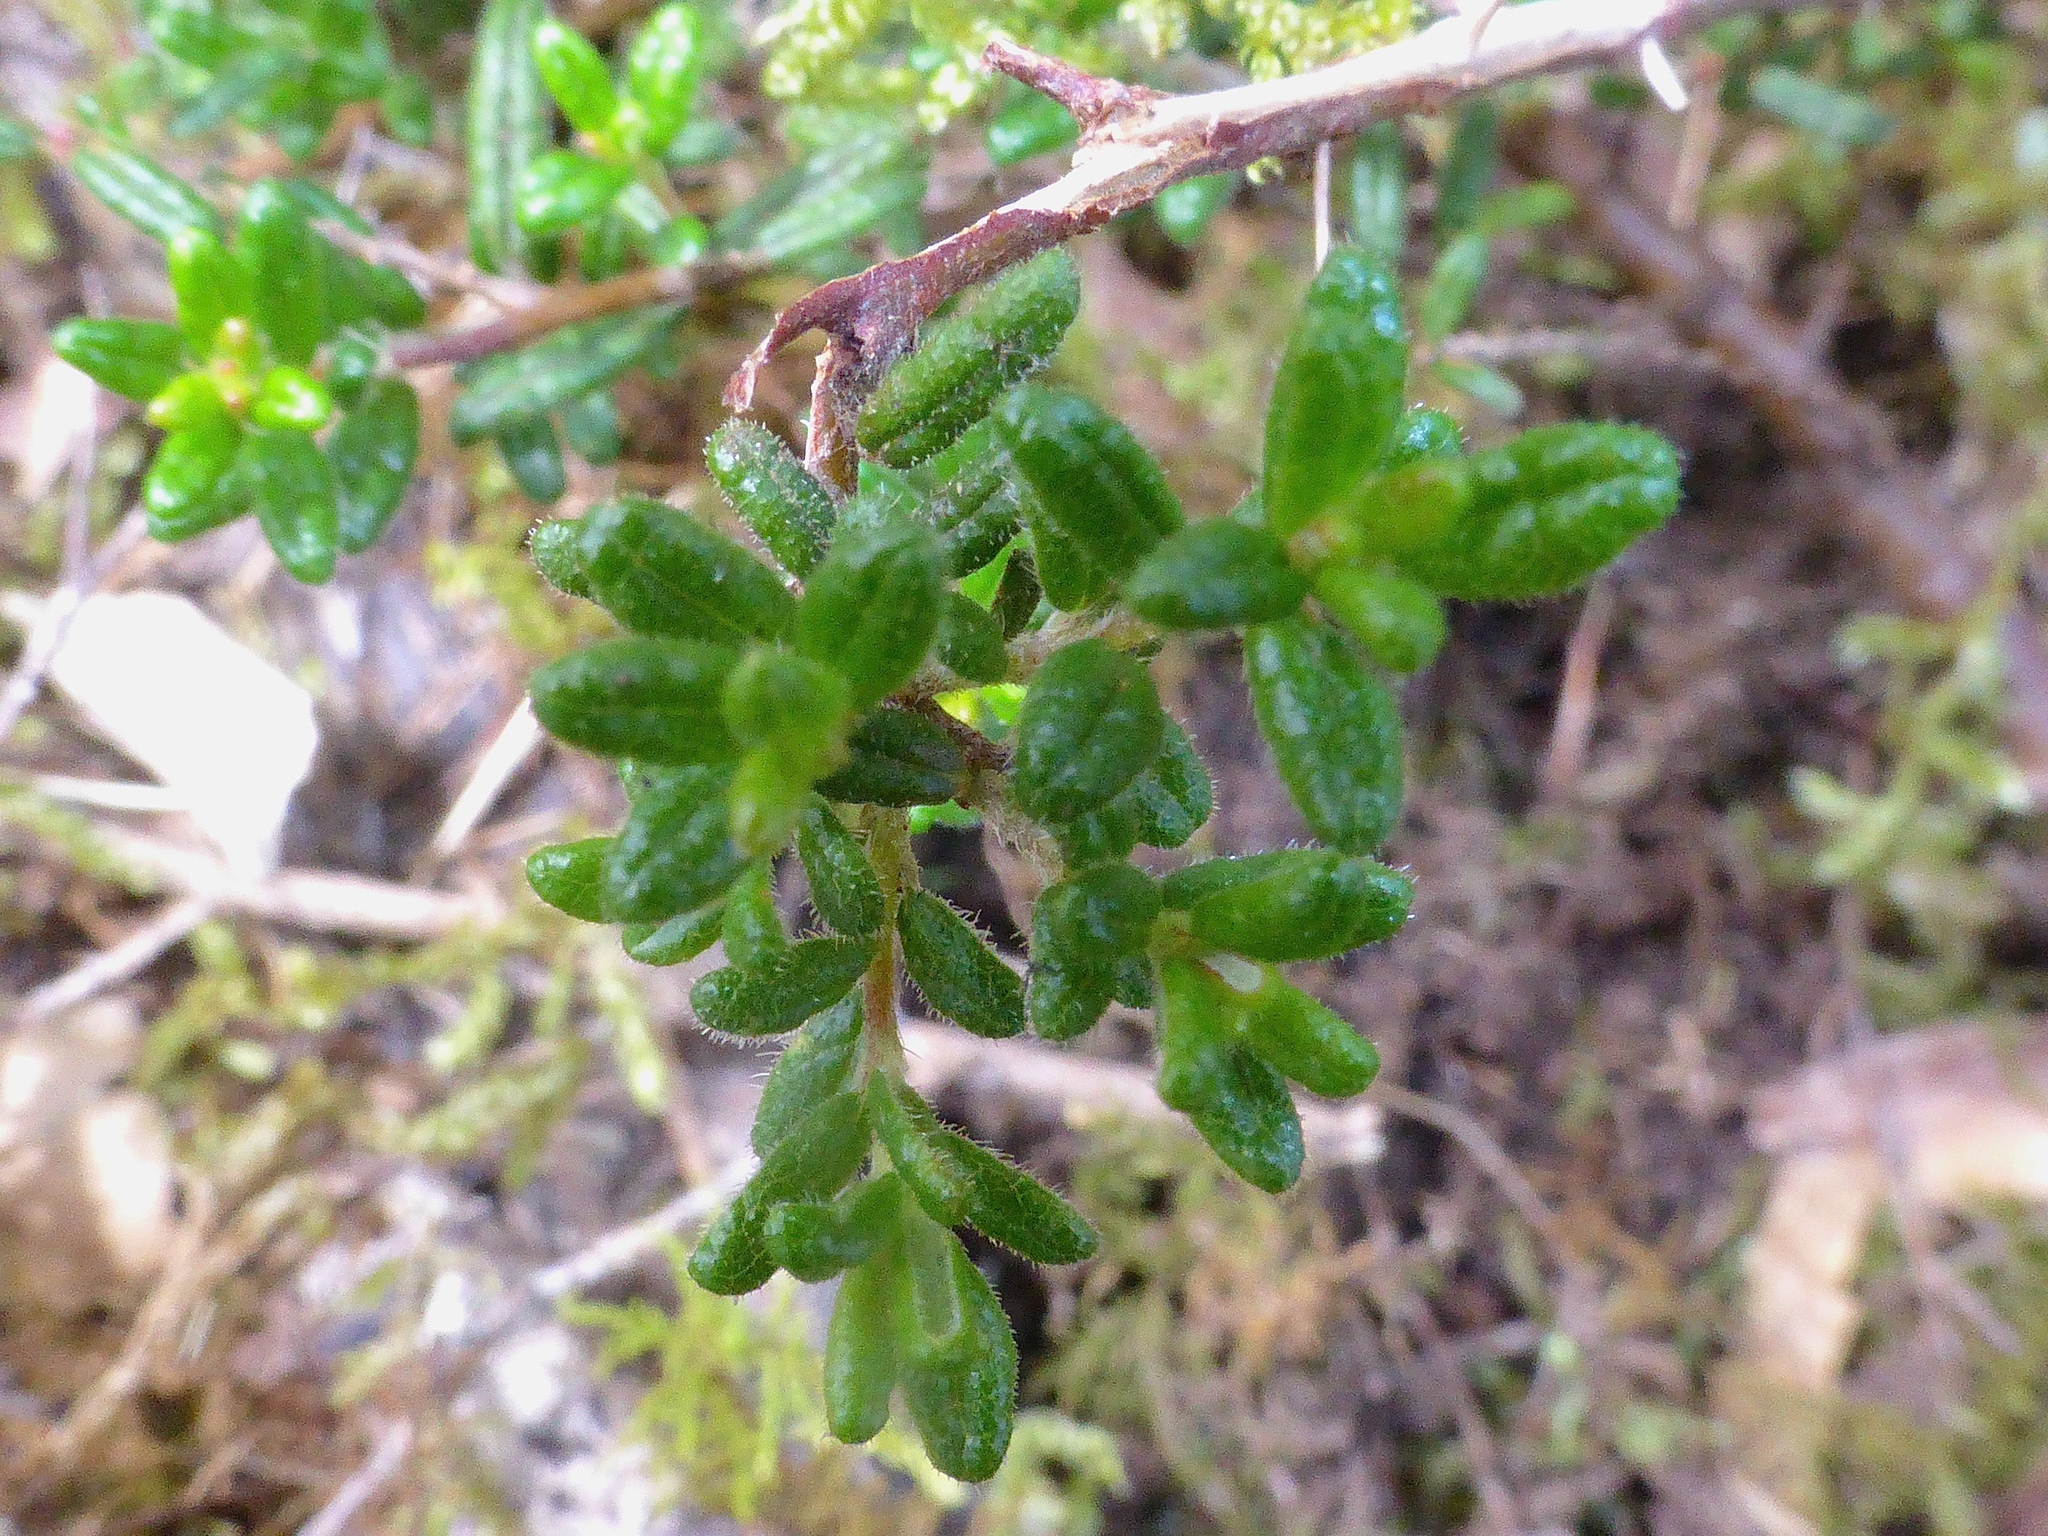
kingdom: Plantae
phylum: Tracheophyta
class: Magnoliopsida
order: Rosales
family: Rhamnaceae
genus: Pomaderris
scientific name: Pomaderris amoena
